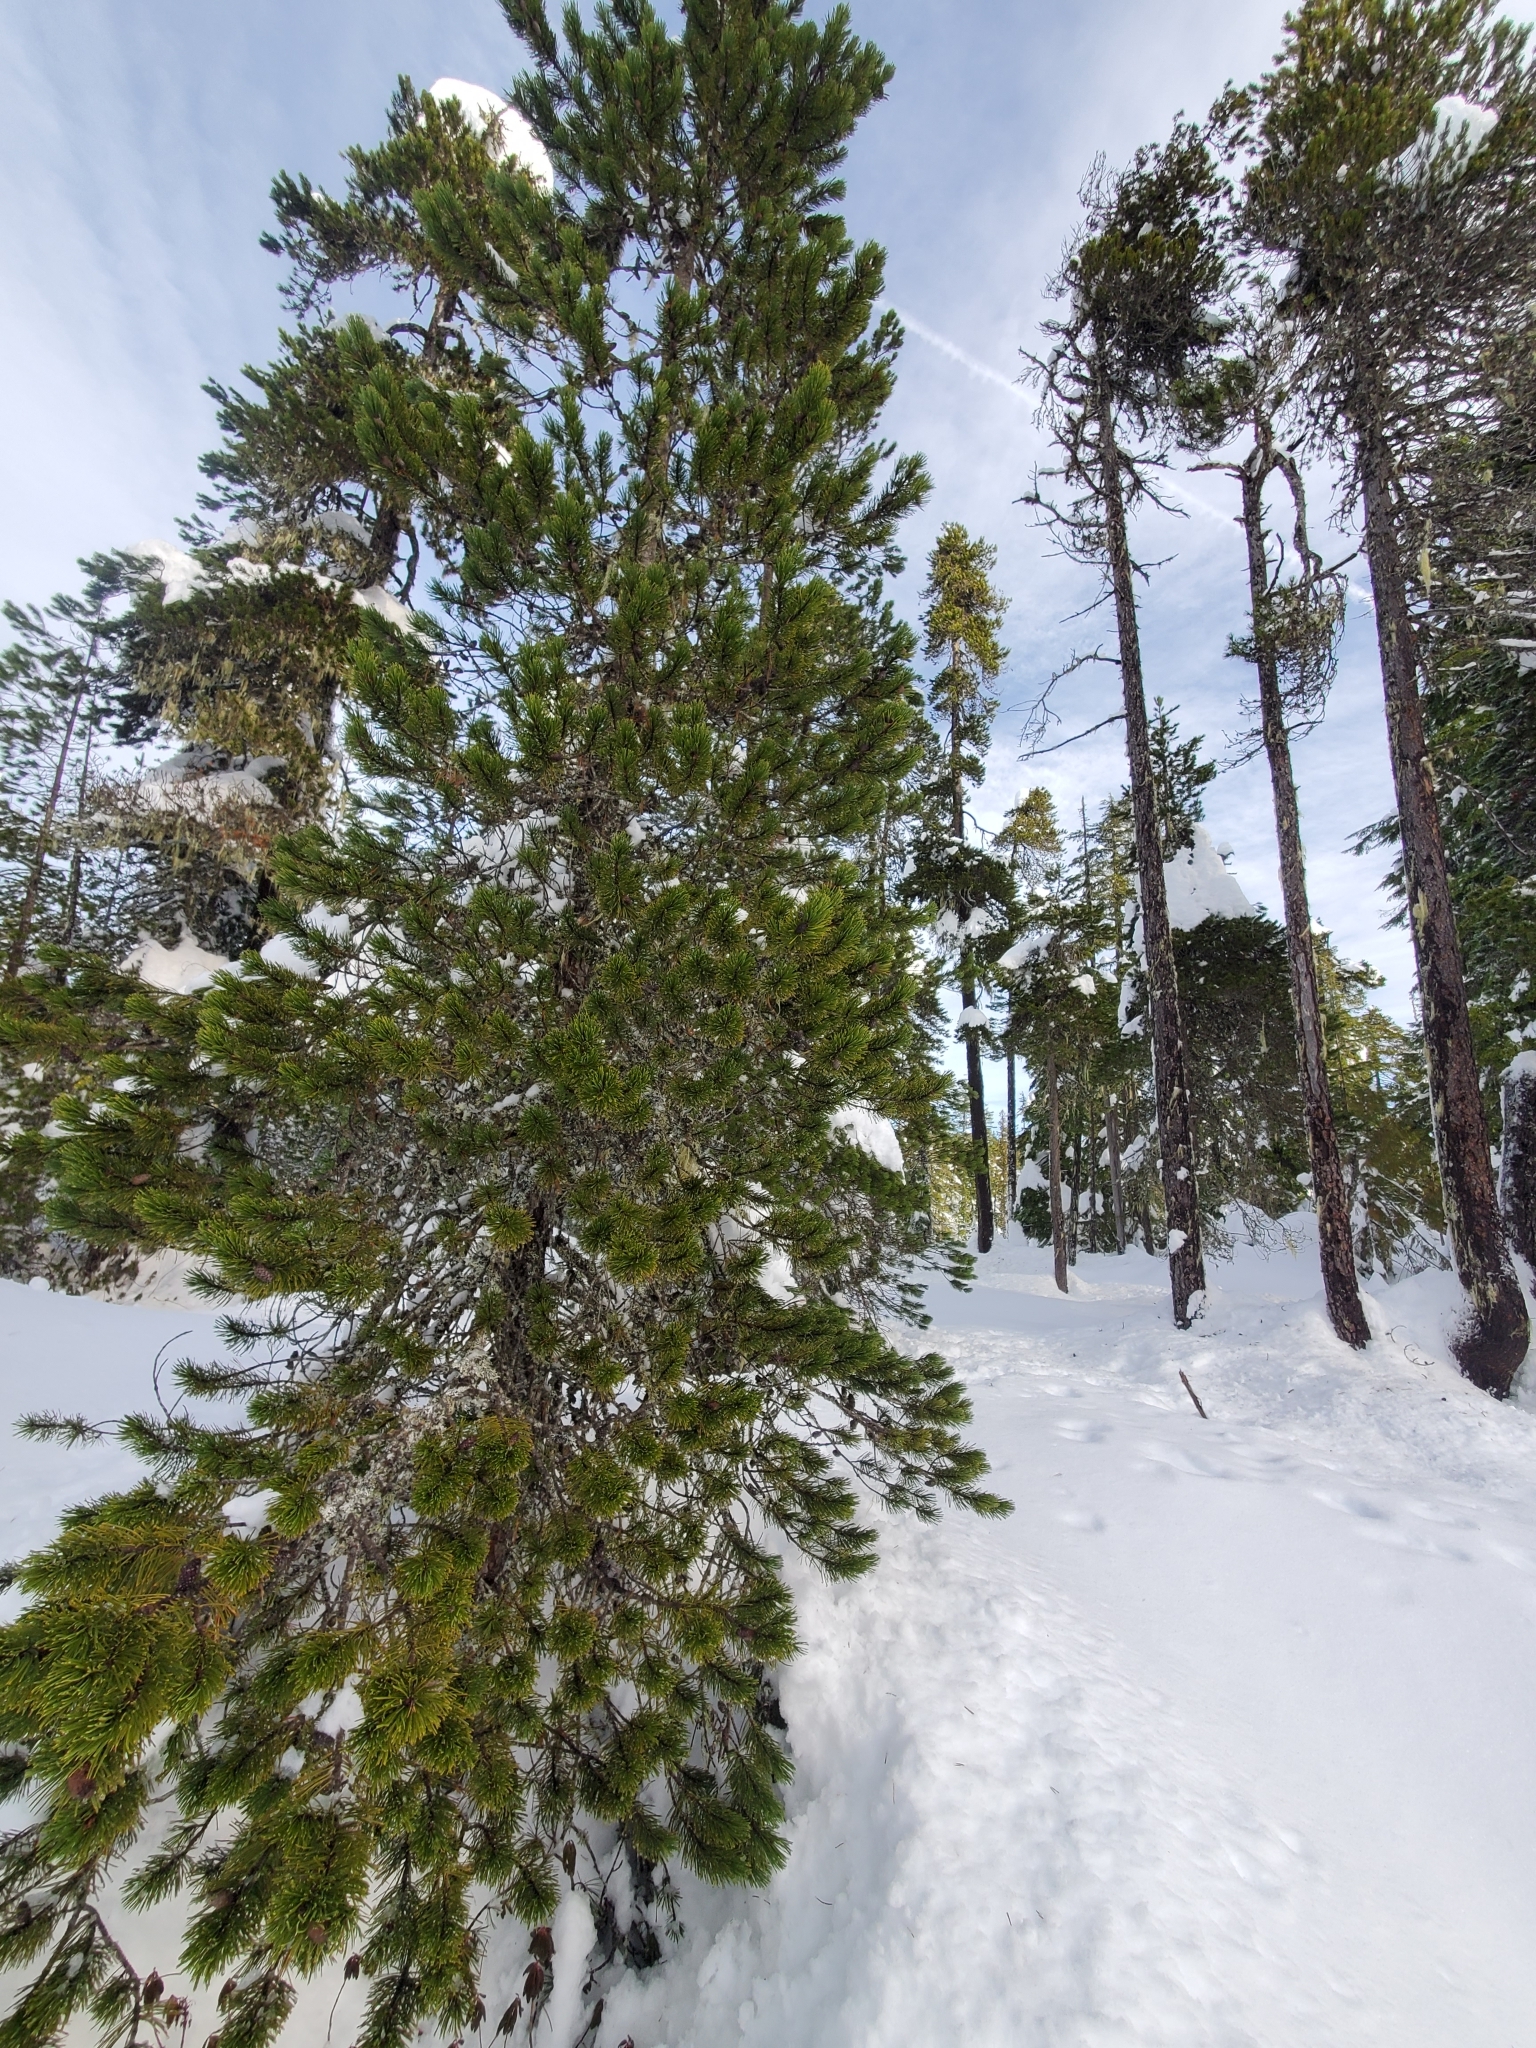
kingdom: Plantae
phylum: Tracheophyta
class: Pinopsida
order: Pinales
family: Pinaceae
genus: Pinus
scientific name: Pinus contorta
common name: Lodgepole pine
